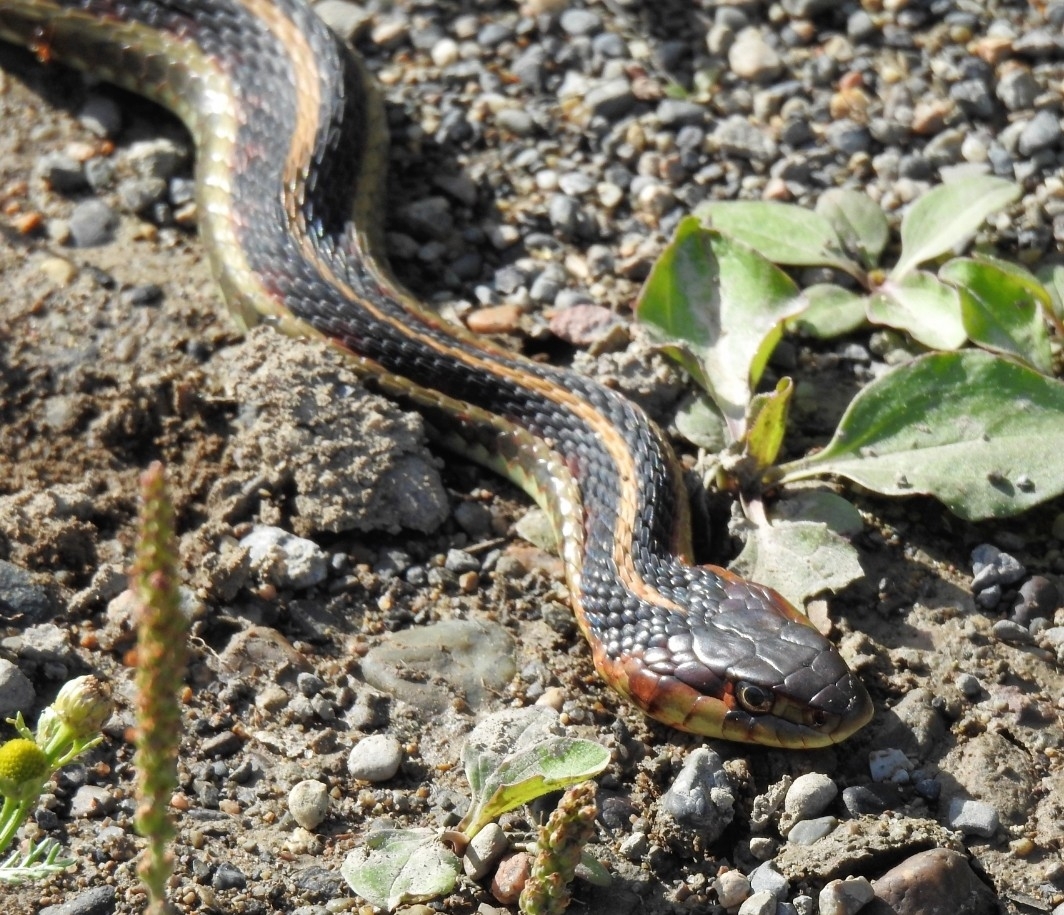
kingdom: Animalia
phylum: Chordata
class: Squamata
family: Colubridae
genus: Thamnophis
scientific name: Thamnophis sirtalis
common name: Common garter snake
